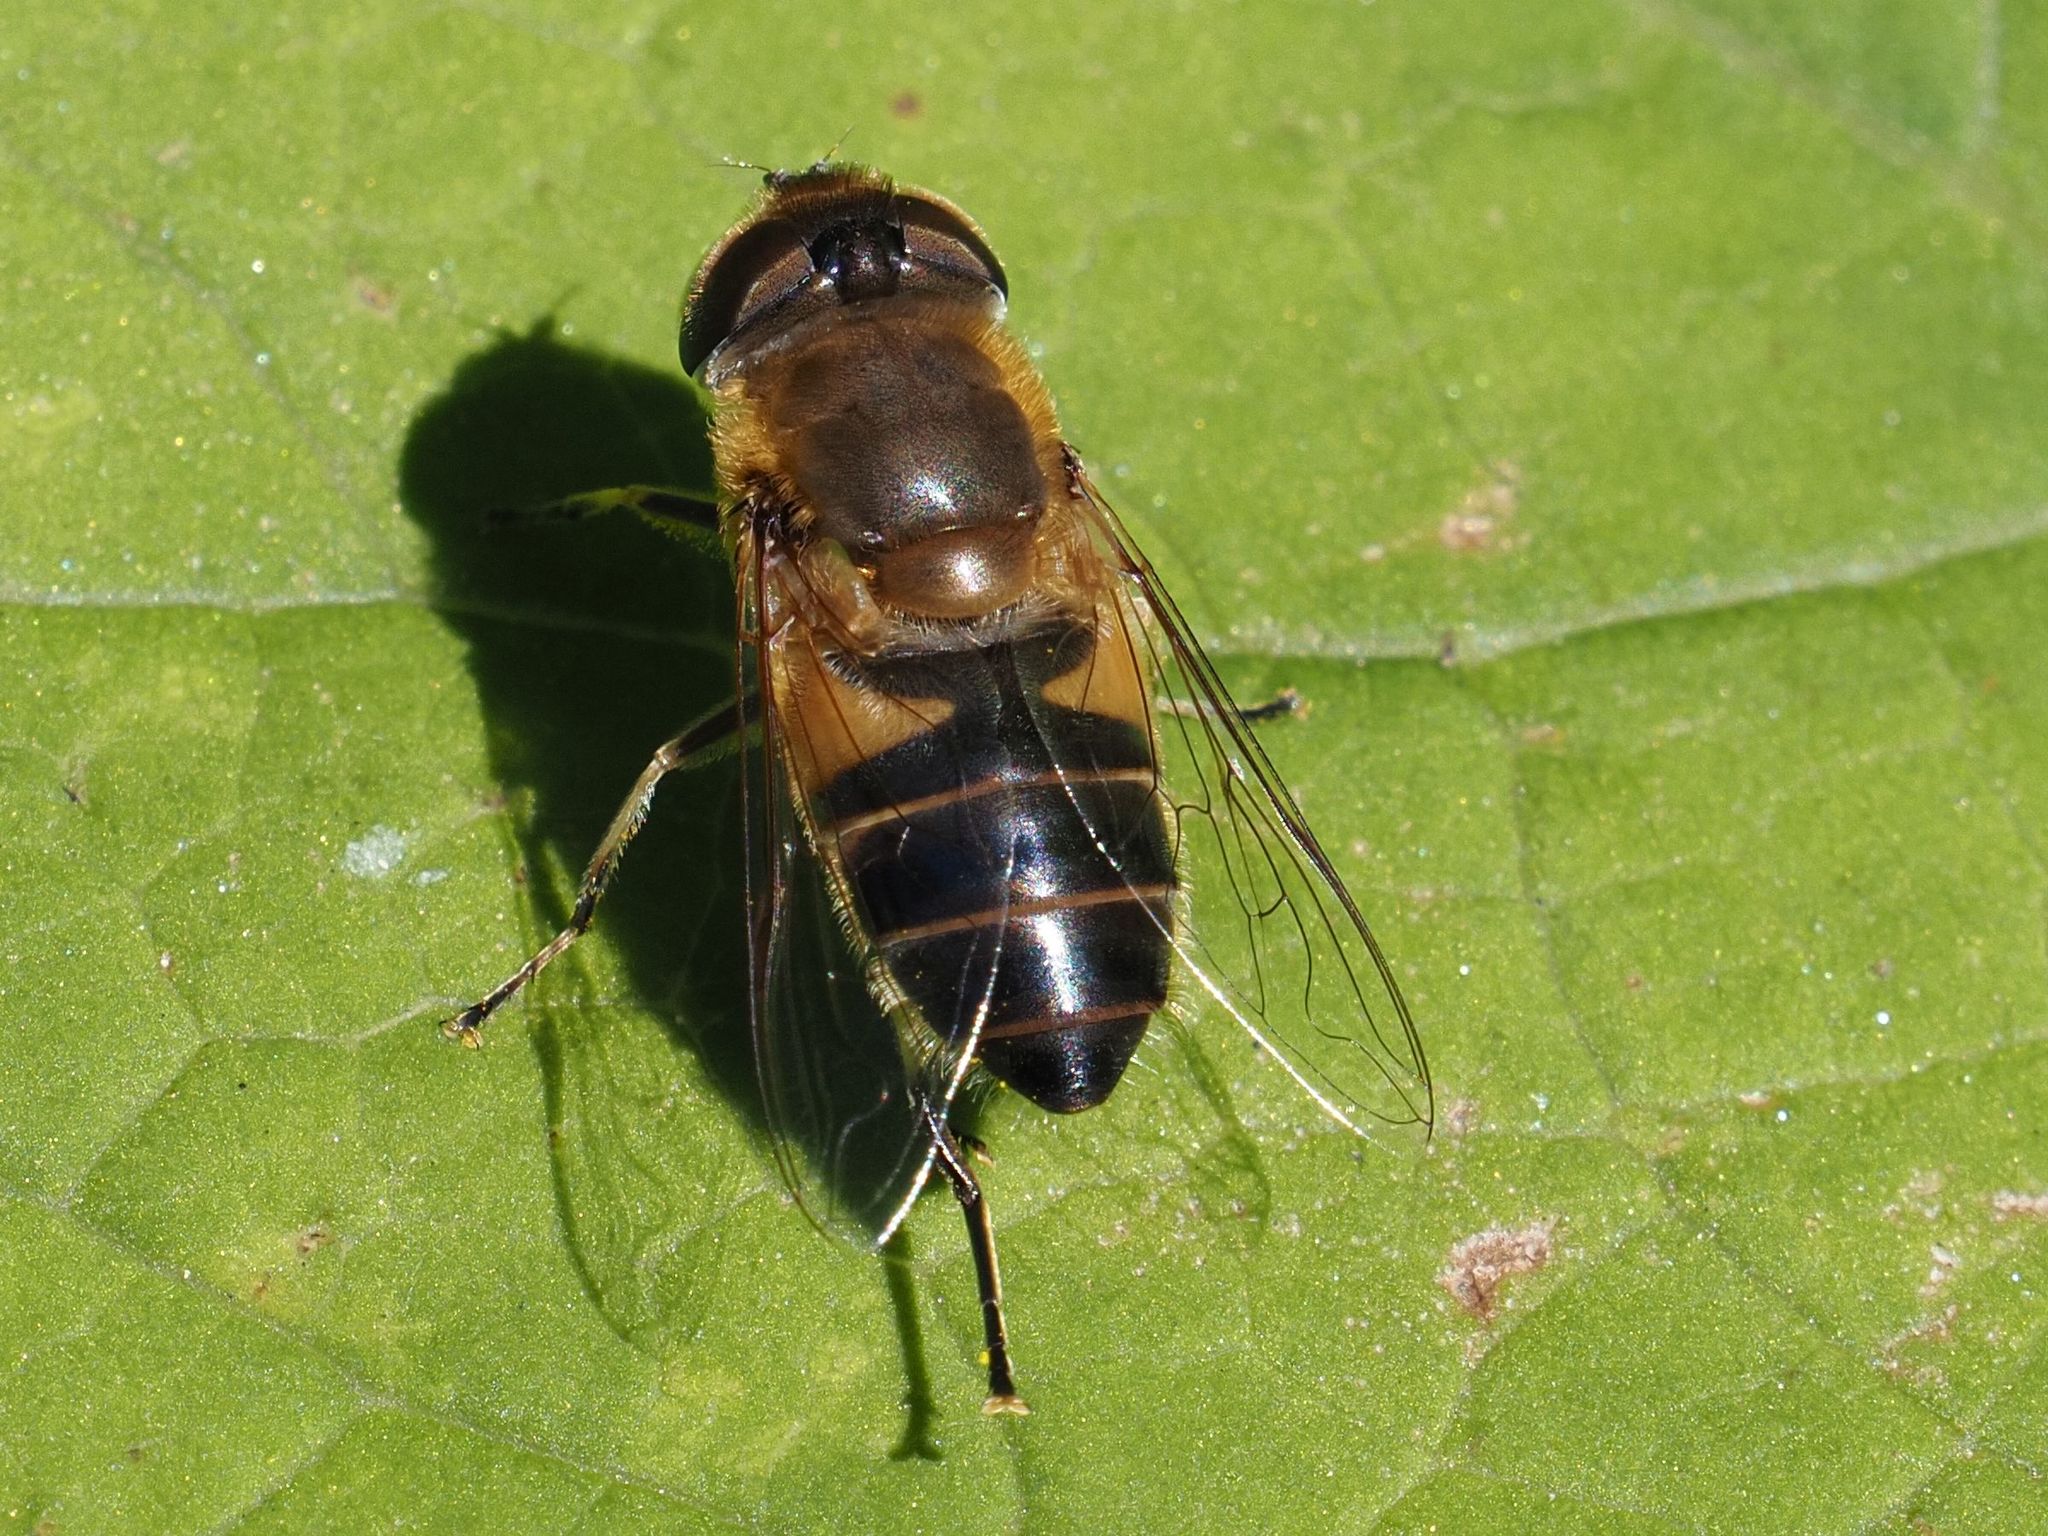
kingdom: Animalia
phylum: Arthropoda
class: Insecta
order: Diptera
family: Syrphidae
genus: Eristalis
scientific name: Eristalis pertinax
